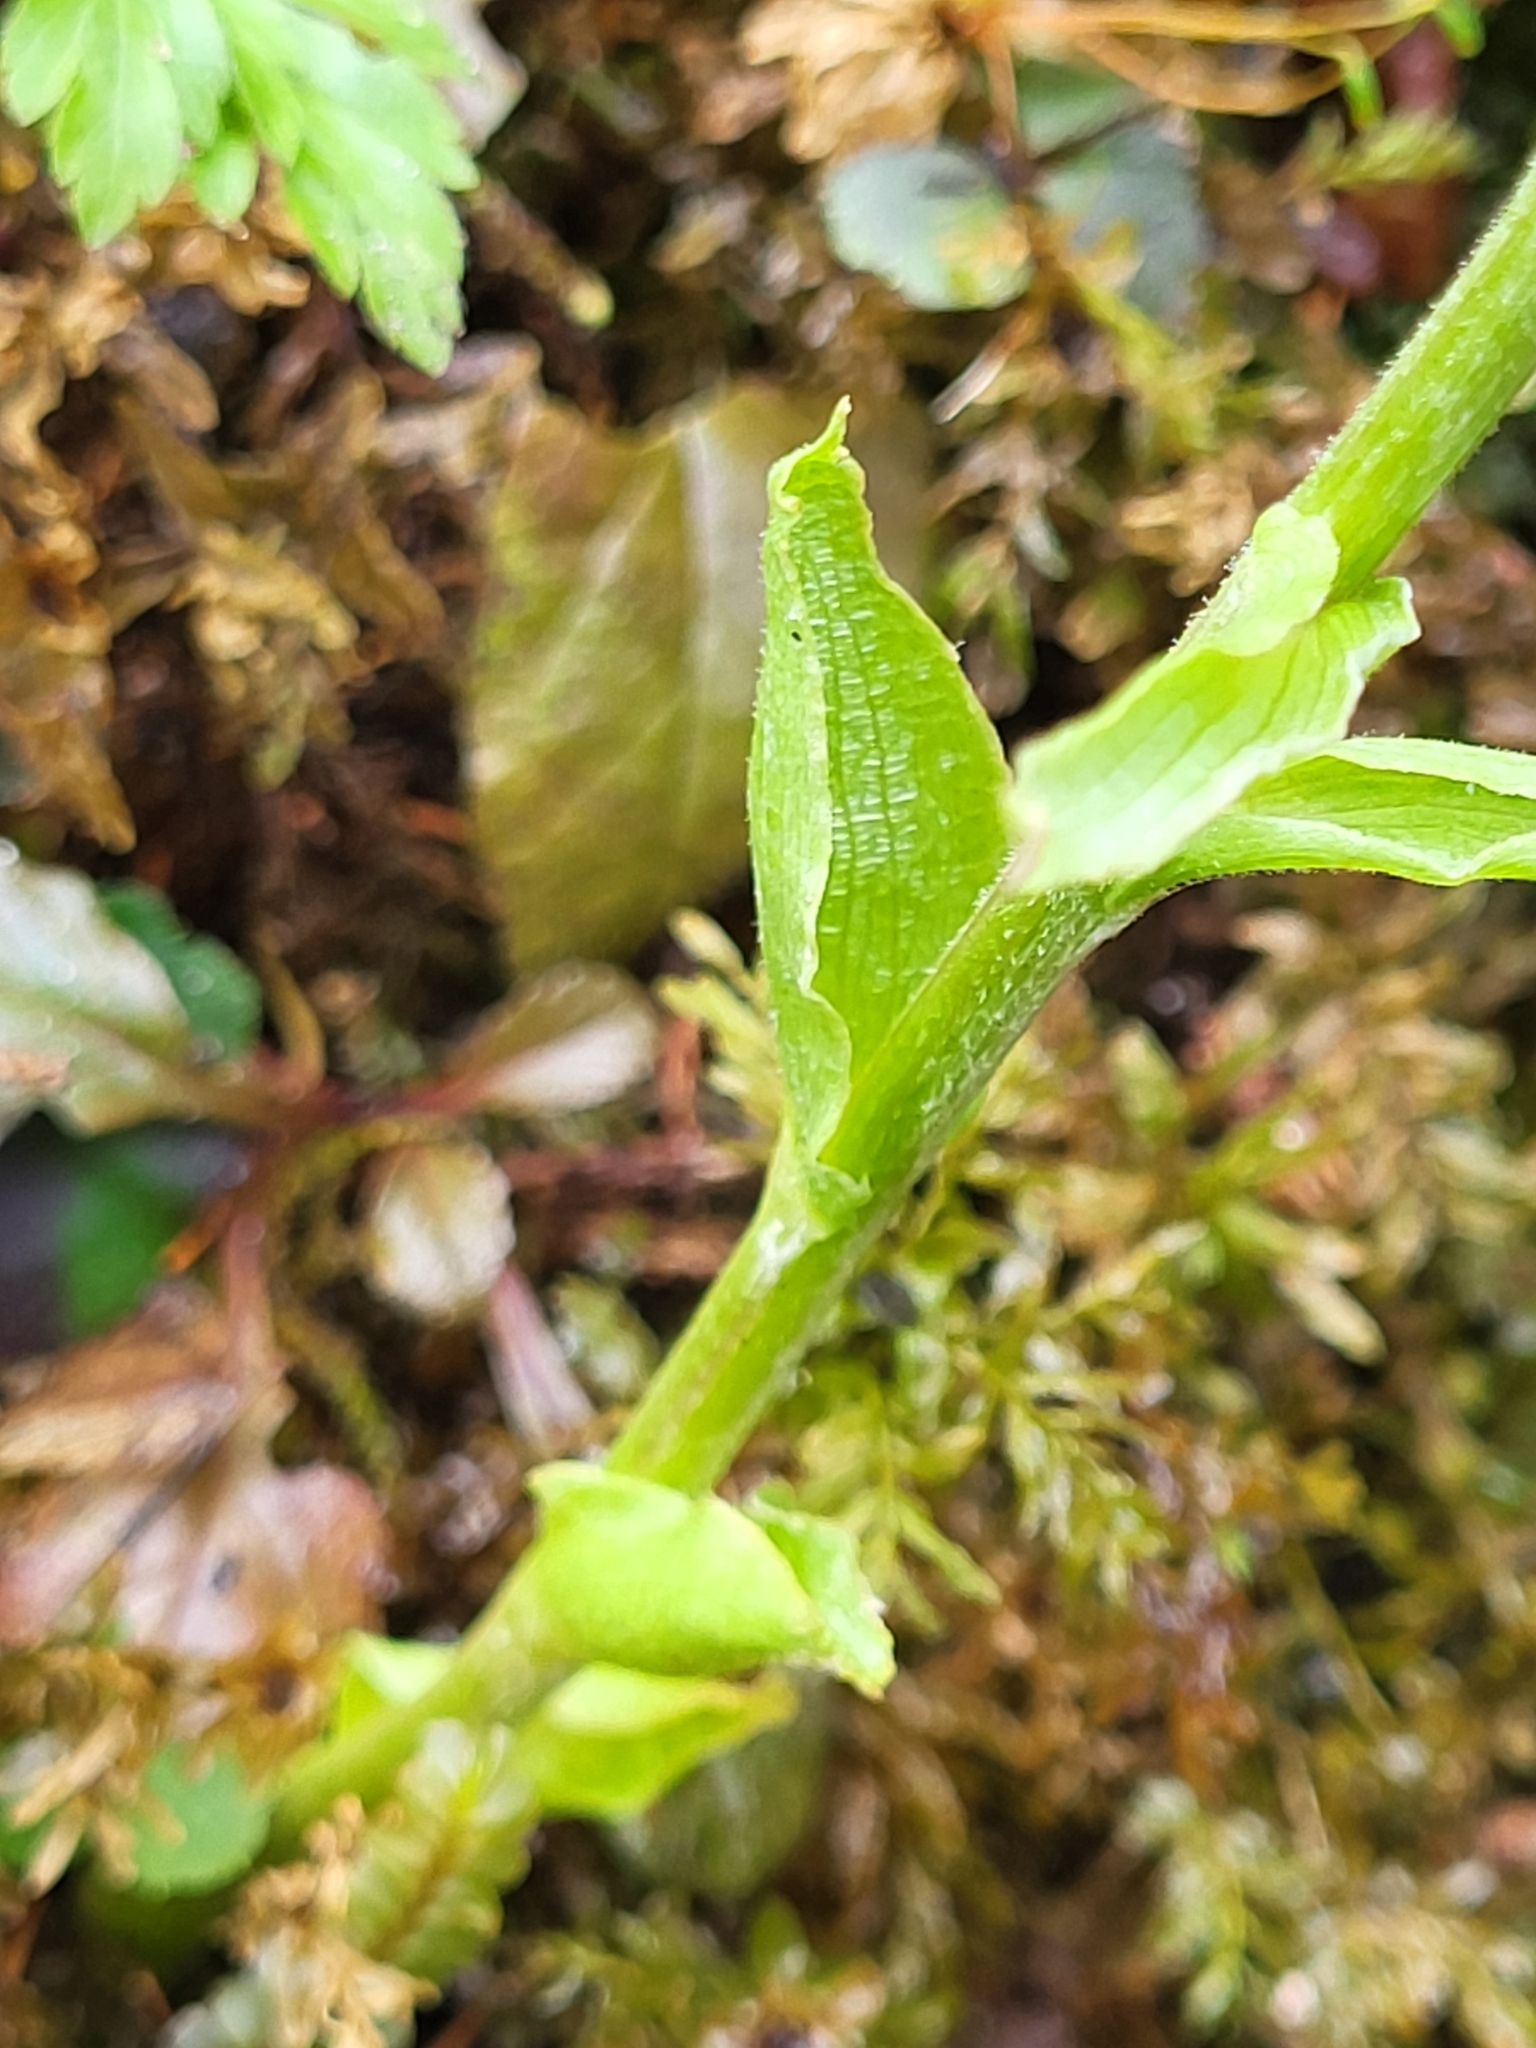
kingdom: Plantae
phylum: Tracheophyta
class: Magnoliopsida
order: Asterales
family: Asteraceae
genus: Petasites
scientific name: Petasites albus
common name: White butterbur
